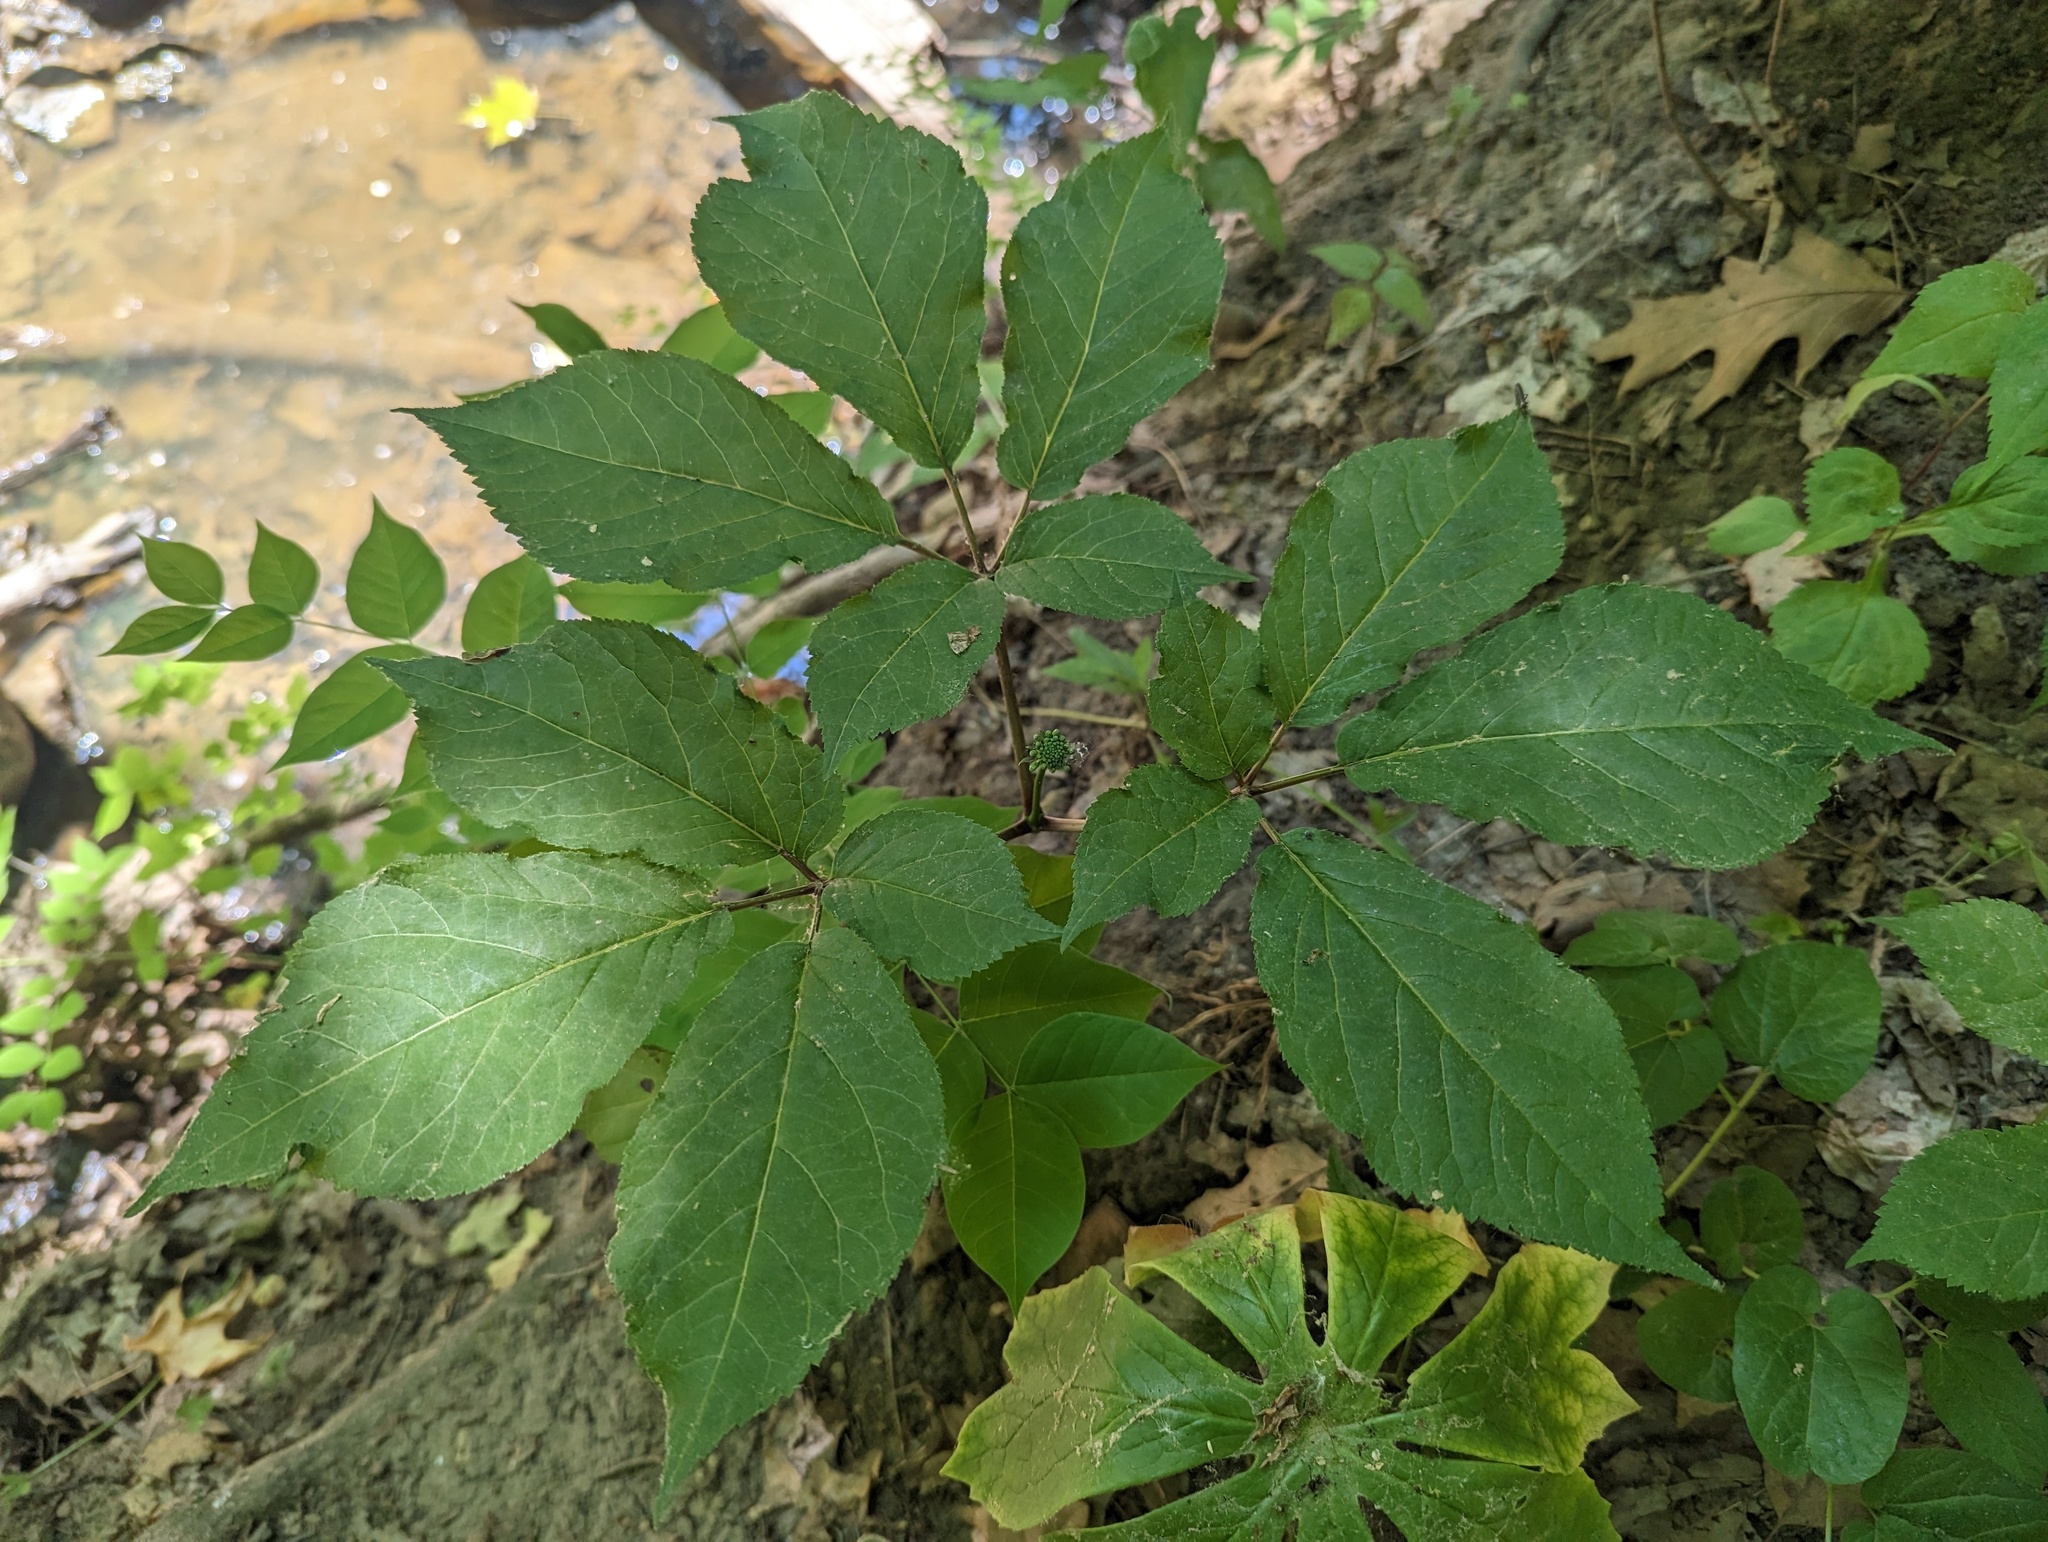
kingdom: Plantae
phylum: Tracheophyta
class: Magnoliopsida
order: Apiales
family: Araliaceae
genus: Panax
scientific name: Panax quinquefolius
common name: American ginseng
